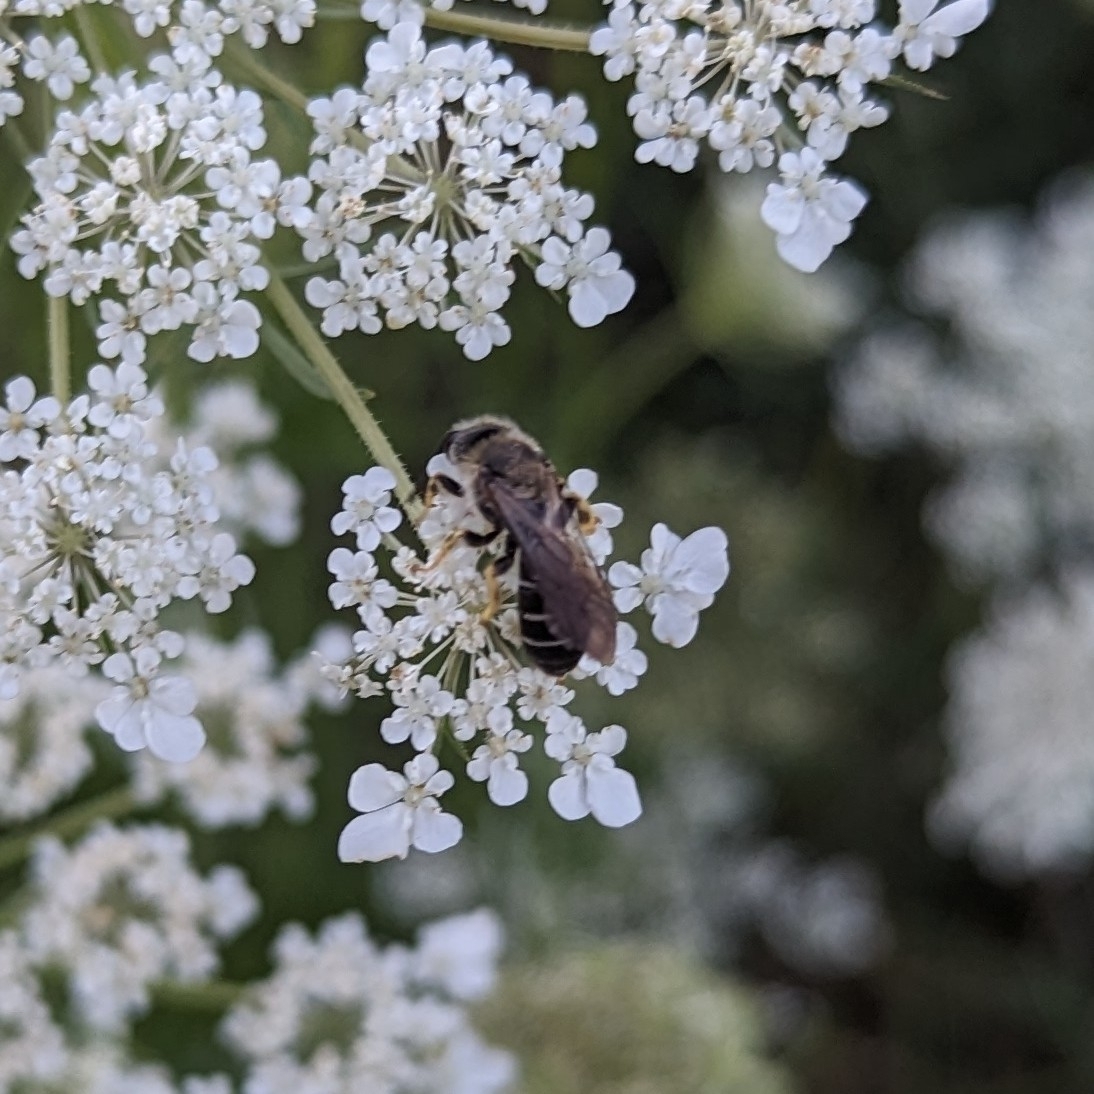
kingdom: Animalia
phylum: Arthropoda
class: Insecta
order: Hymenoptera
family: Halictidae
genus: Halictus
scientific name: Halictus rubicundus
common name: Orange-legged furrow bee
